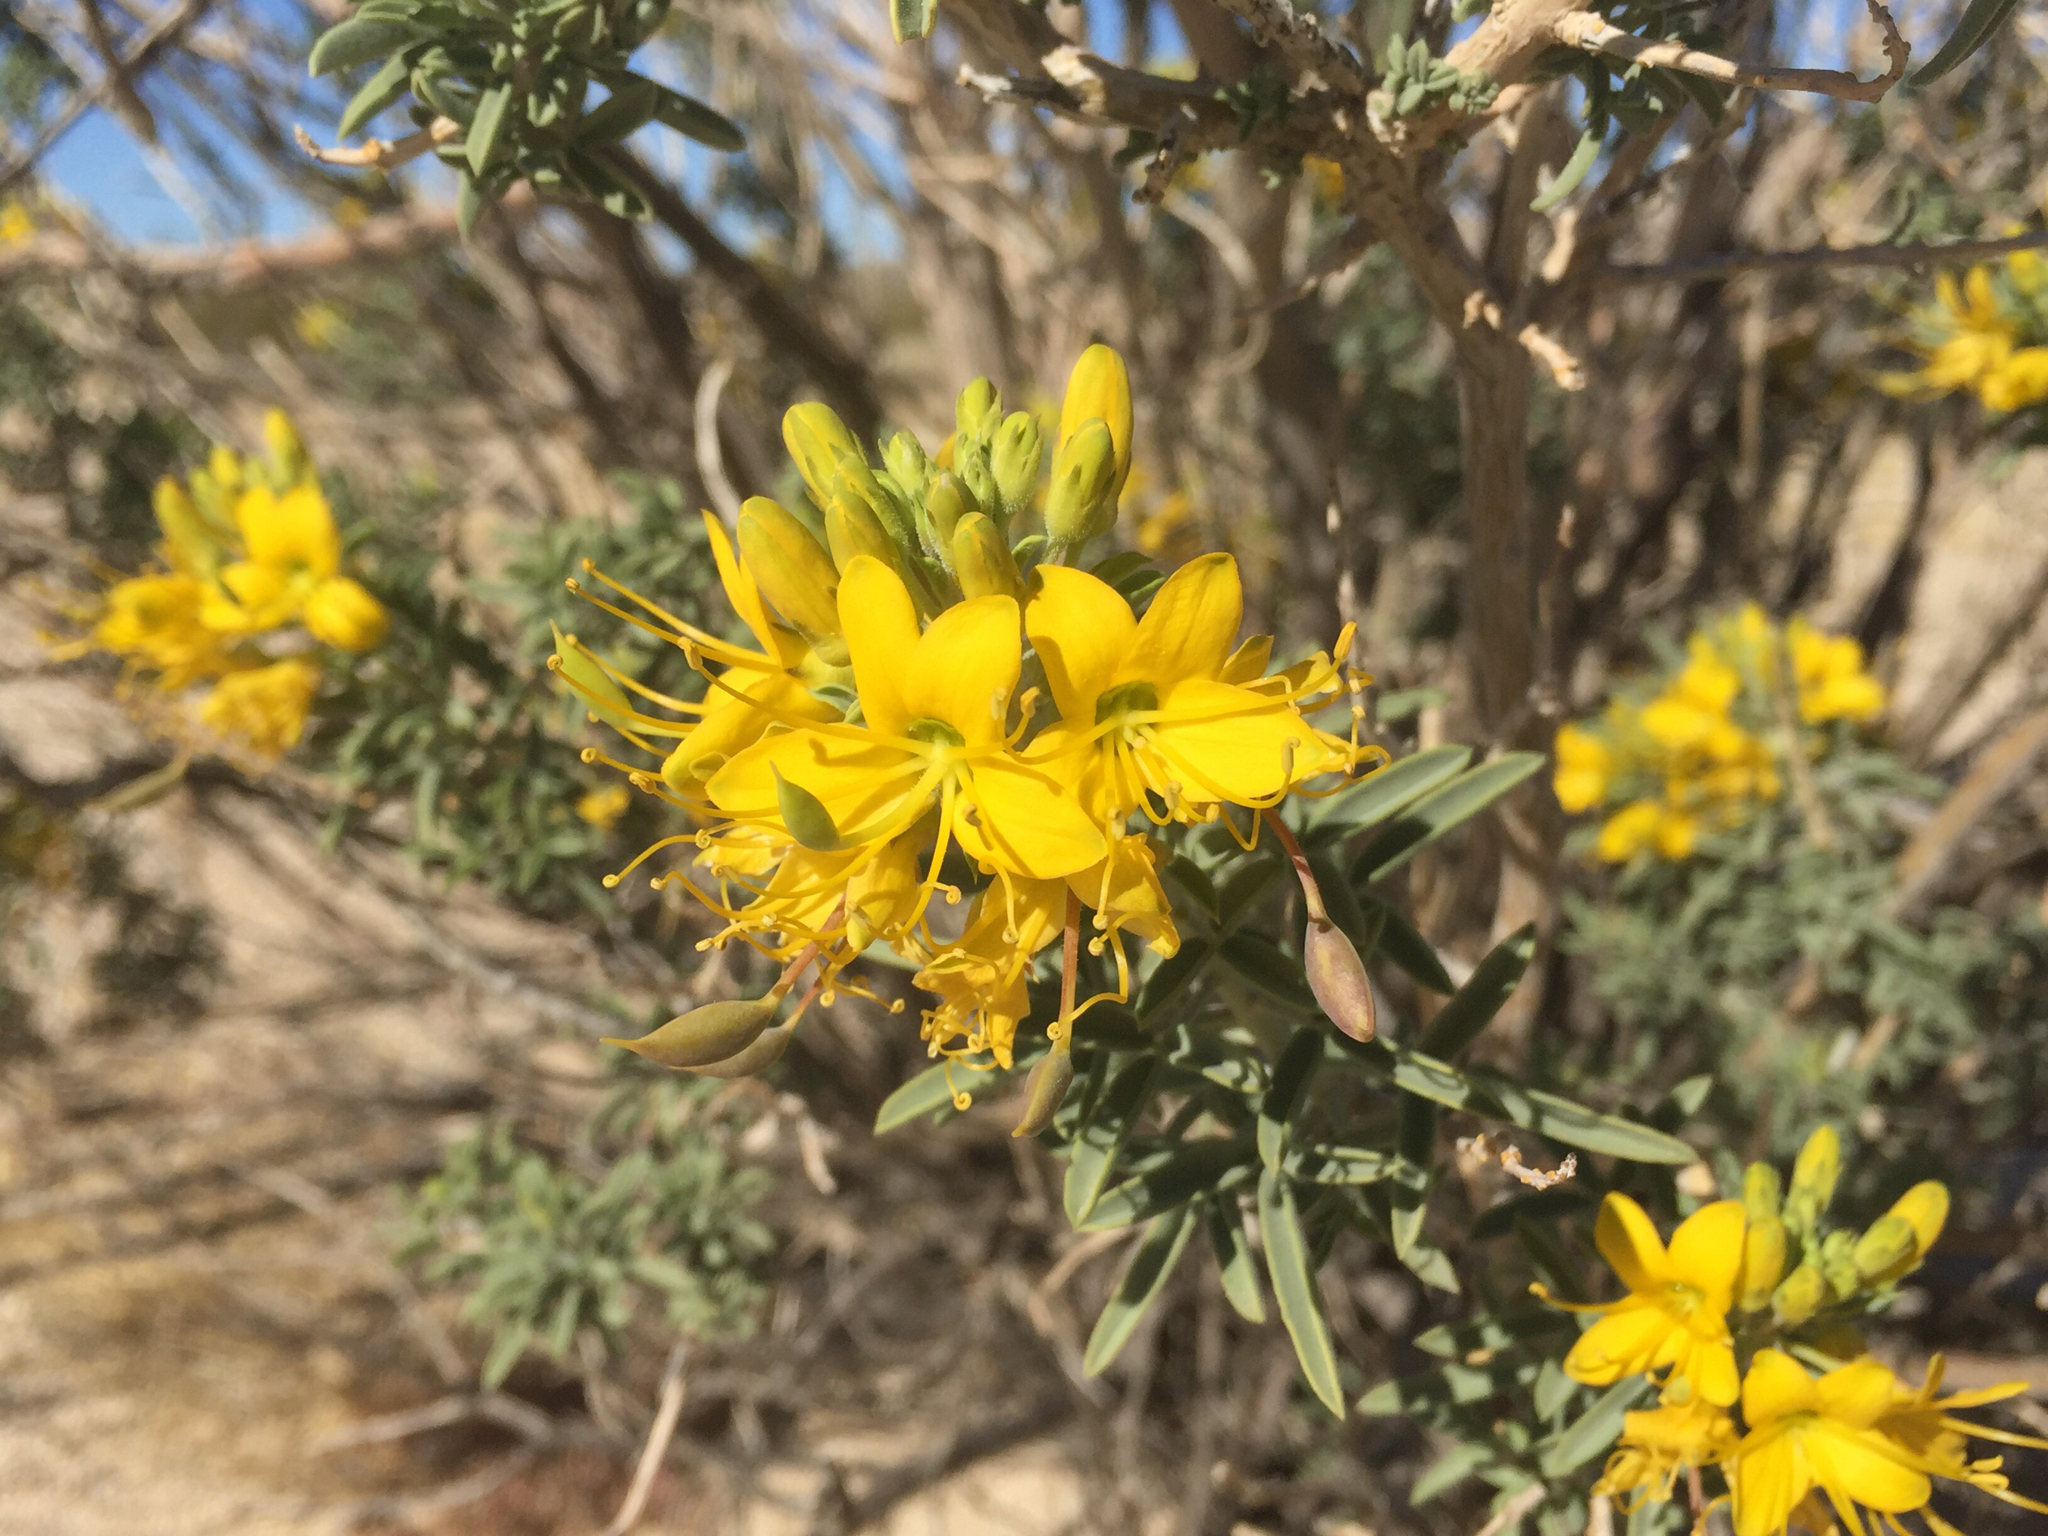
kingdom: Plantae
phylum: Tracheophyta
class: Magnoliopsida
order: Brassicales
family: Cleomaceae
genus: Cleomella
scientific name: Cleomella arborea
